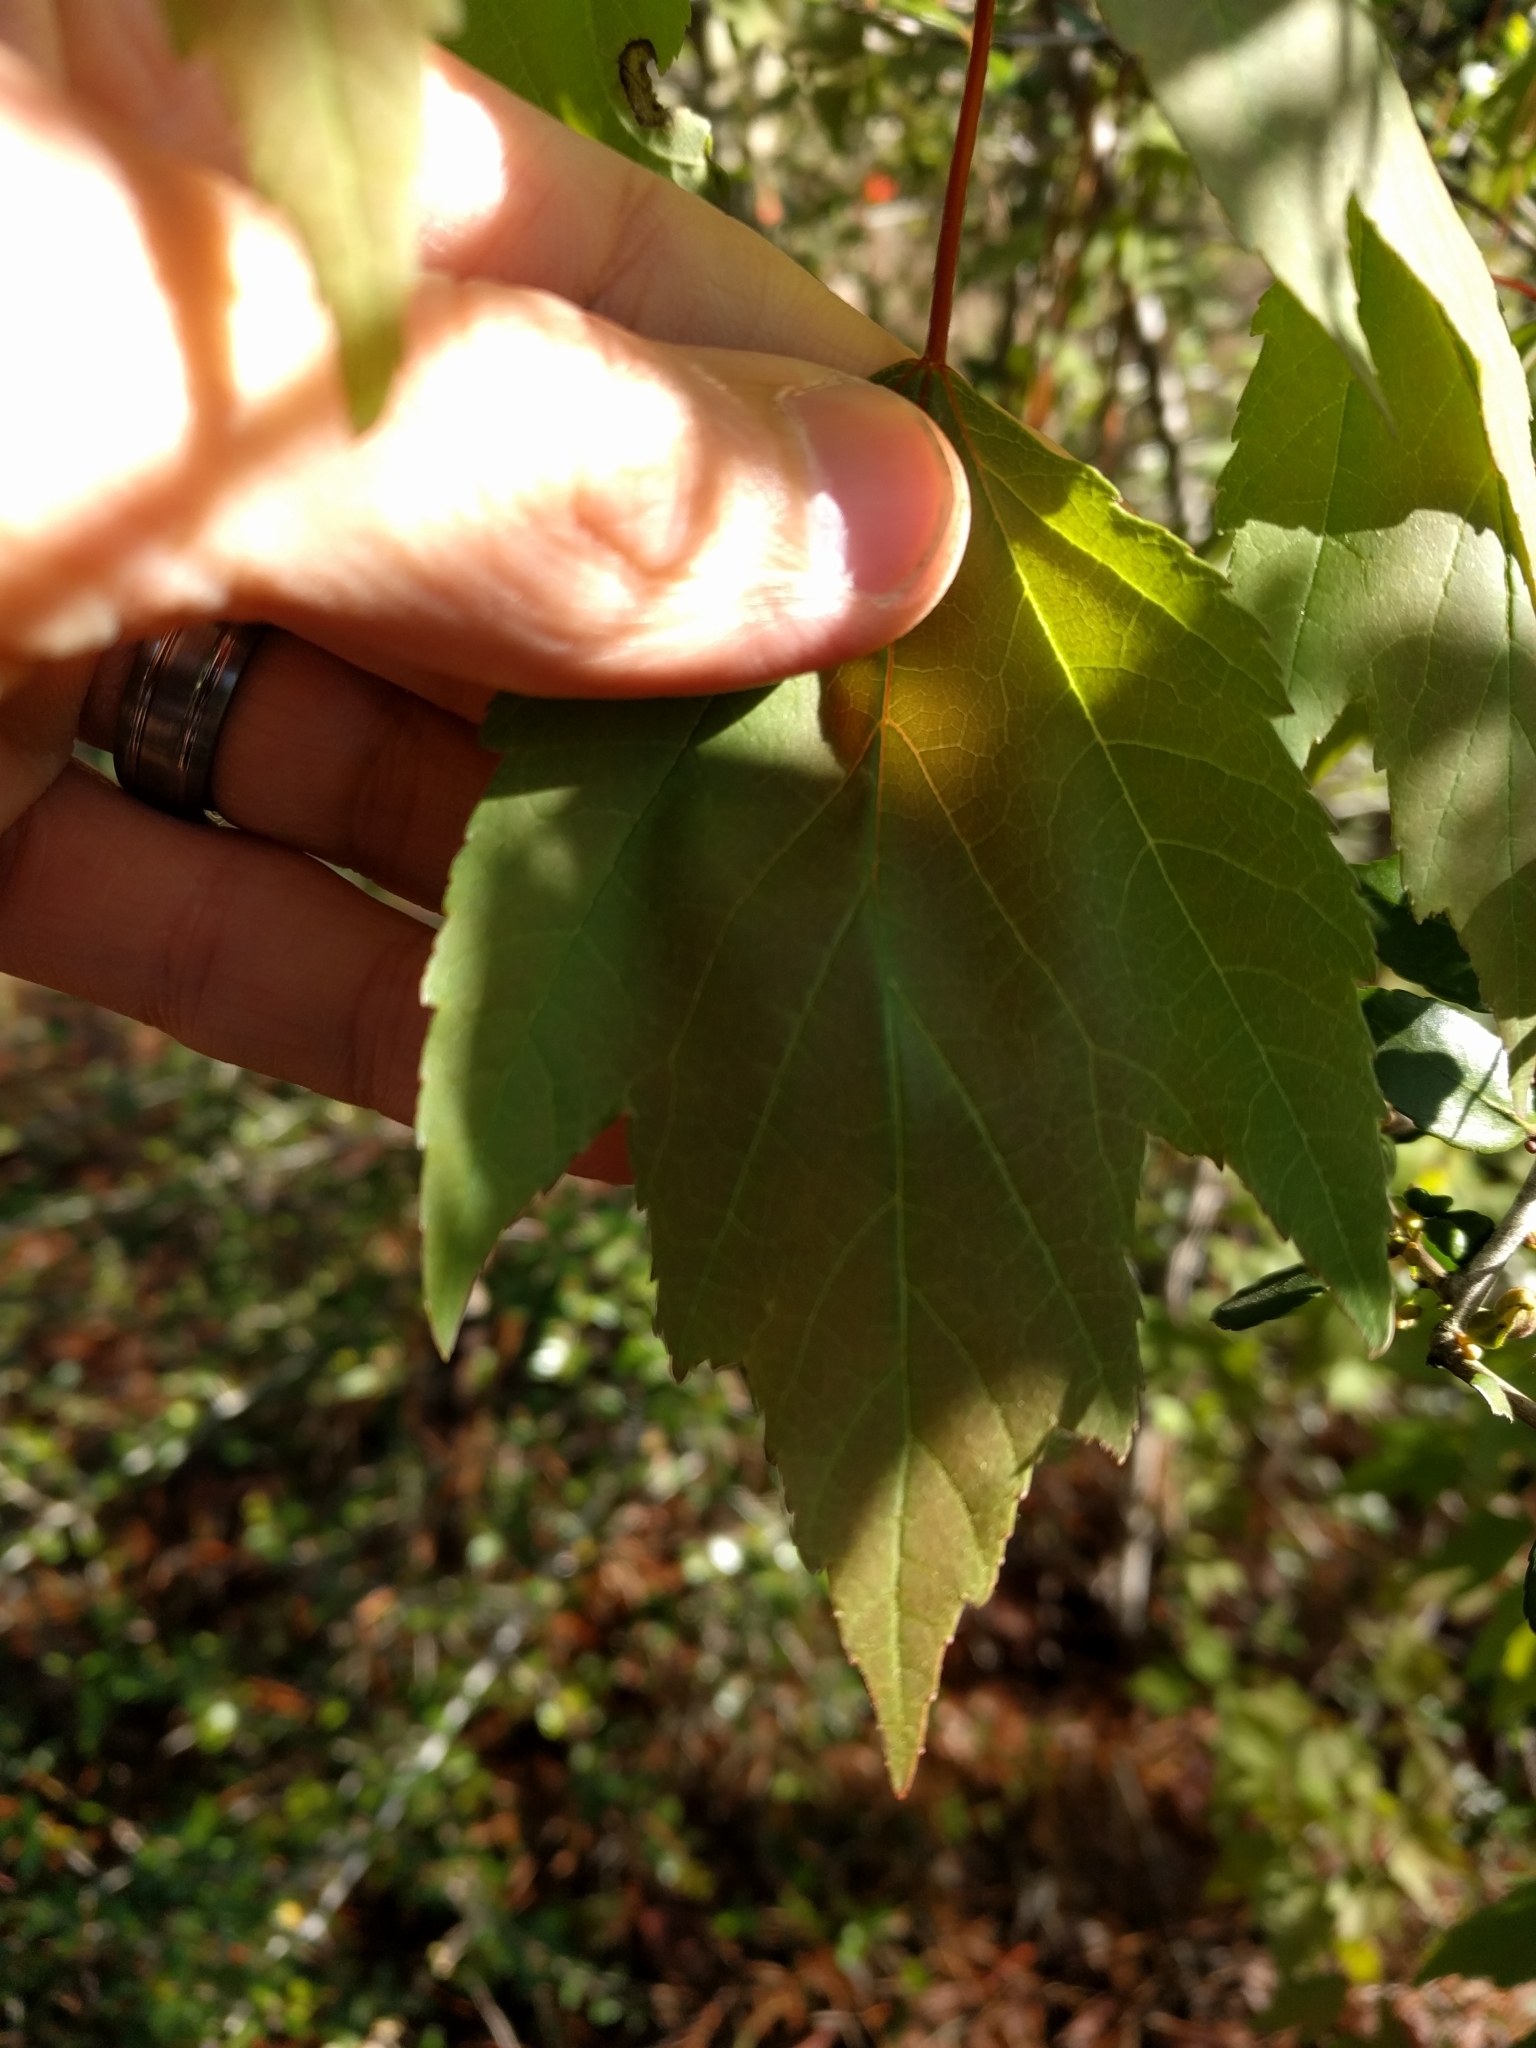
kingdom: Plantae
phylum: Tracheophyta
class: Magnoliopsida
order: Sapindales
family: Sapindaceae
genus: Acer
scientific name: Acer rubrum
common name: Red maple
